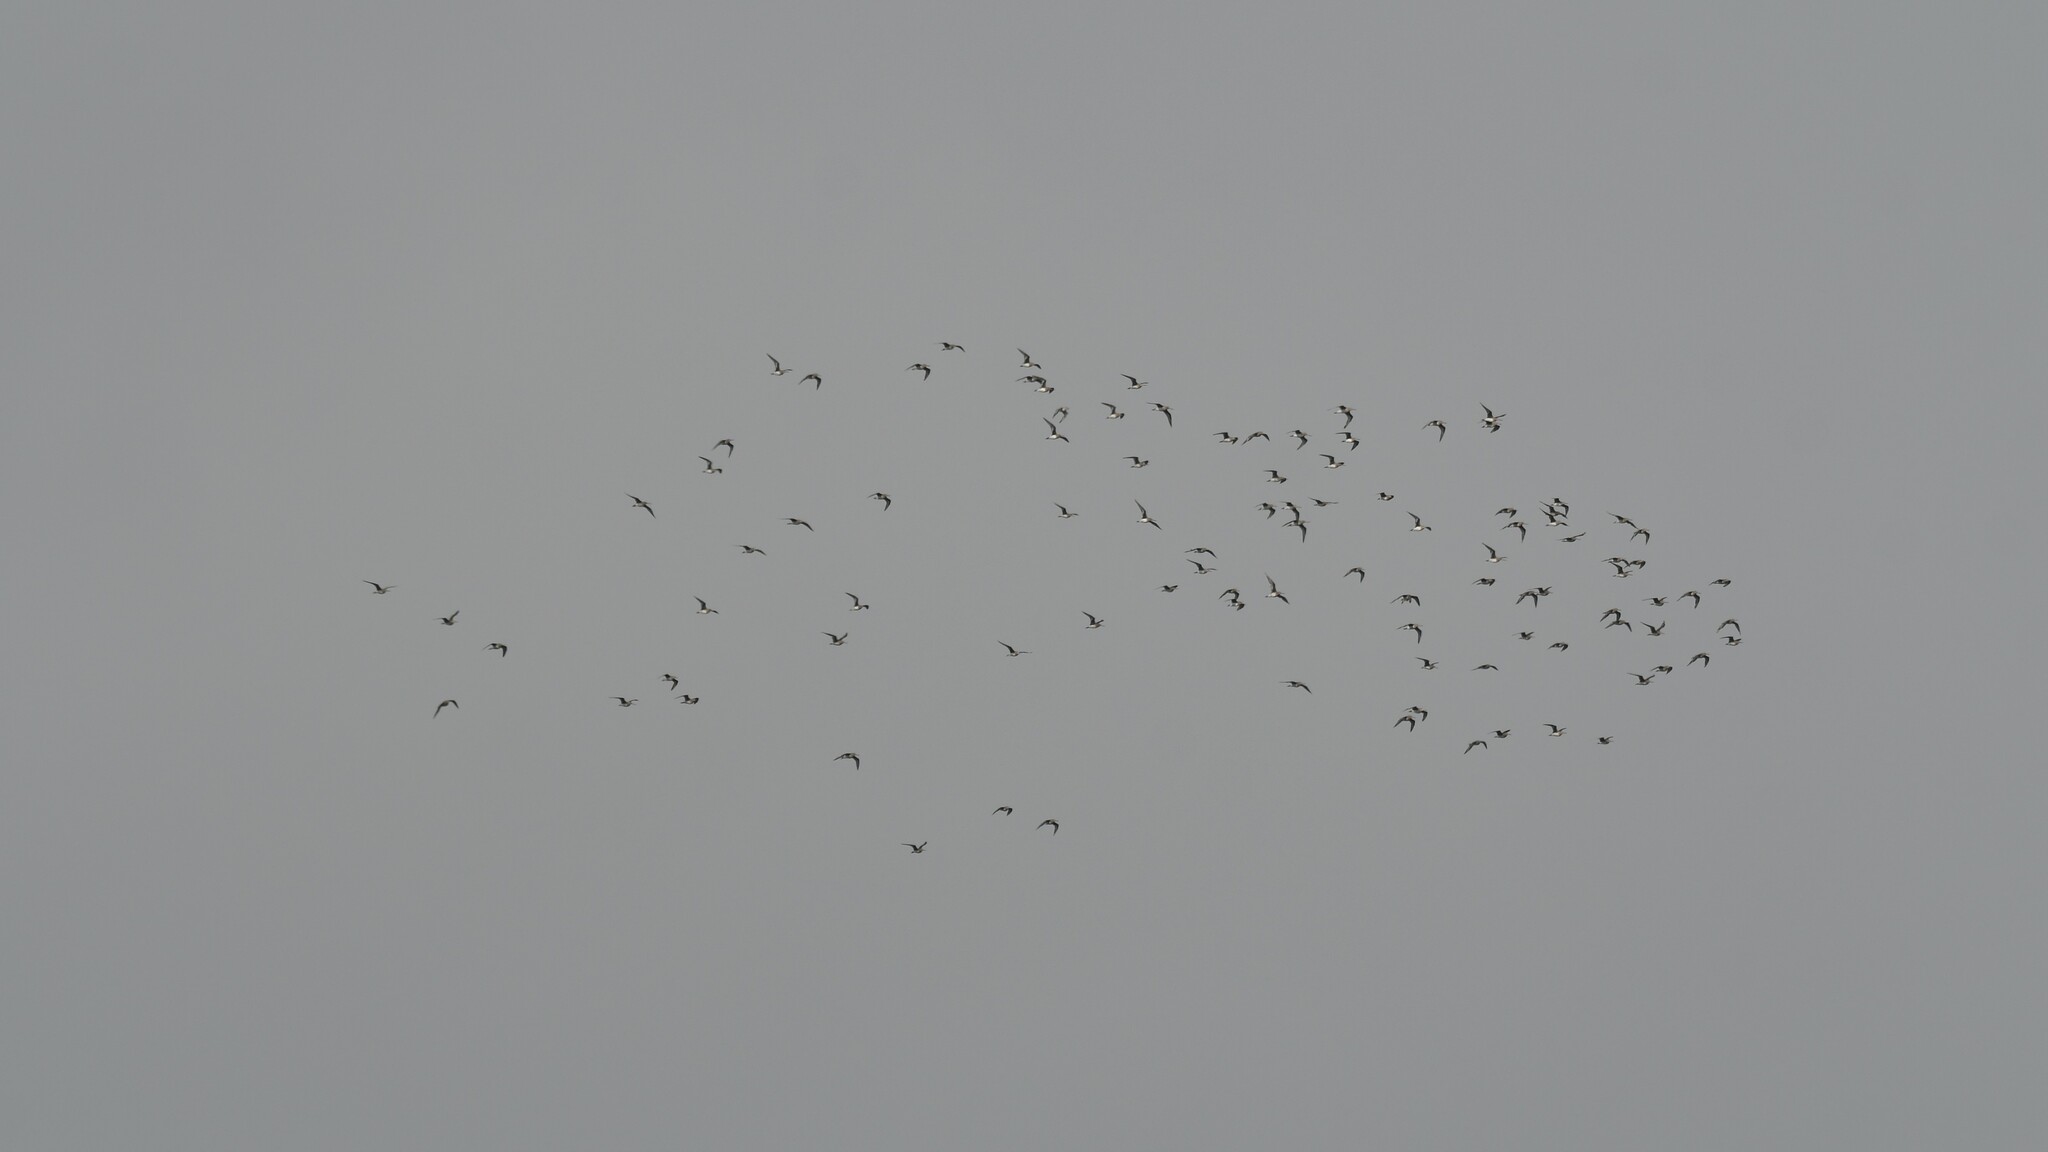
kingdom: Animalia
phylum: Chordata
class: Aves
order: Charadriiformes
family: Scolopacidae
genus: Limosa
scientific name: Limosa haemastica
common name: Hudsonian godwit
